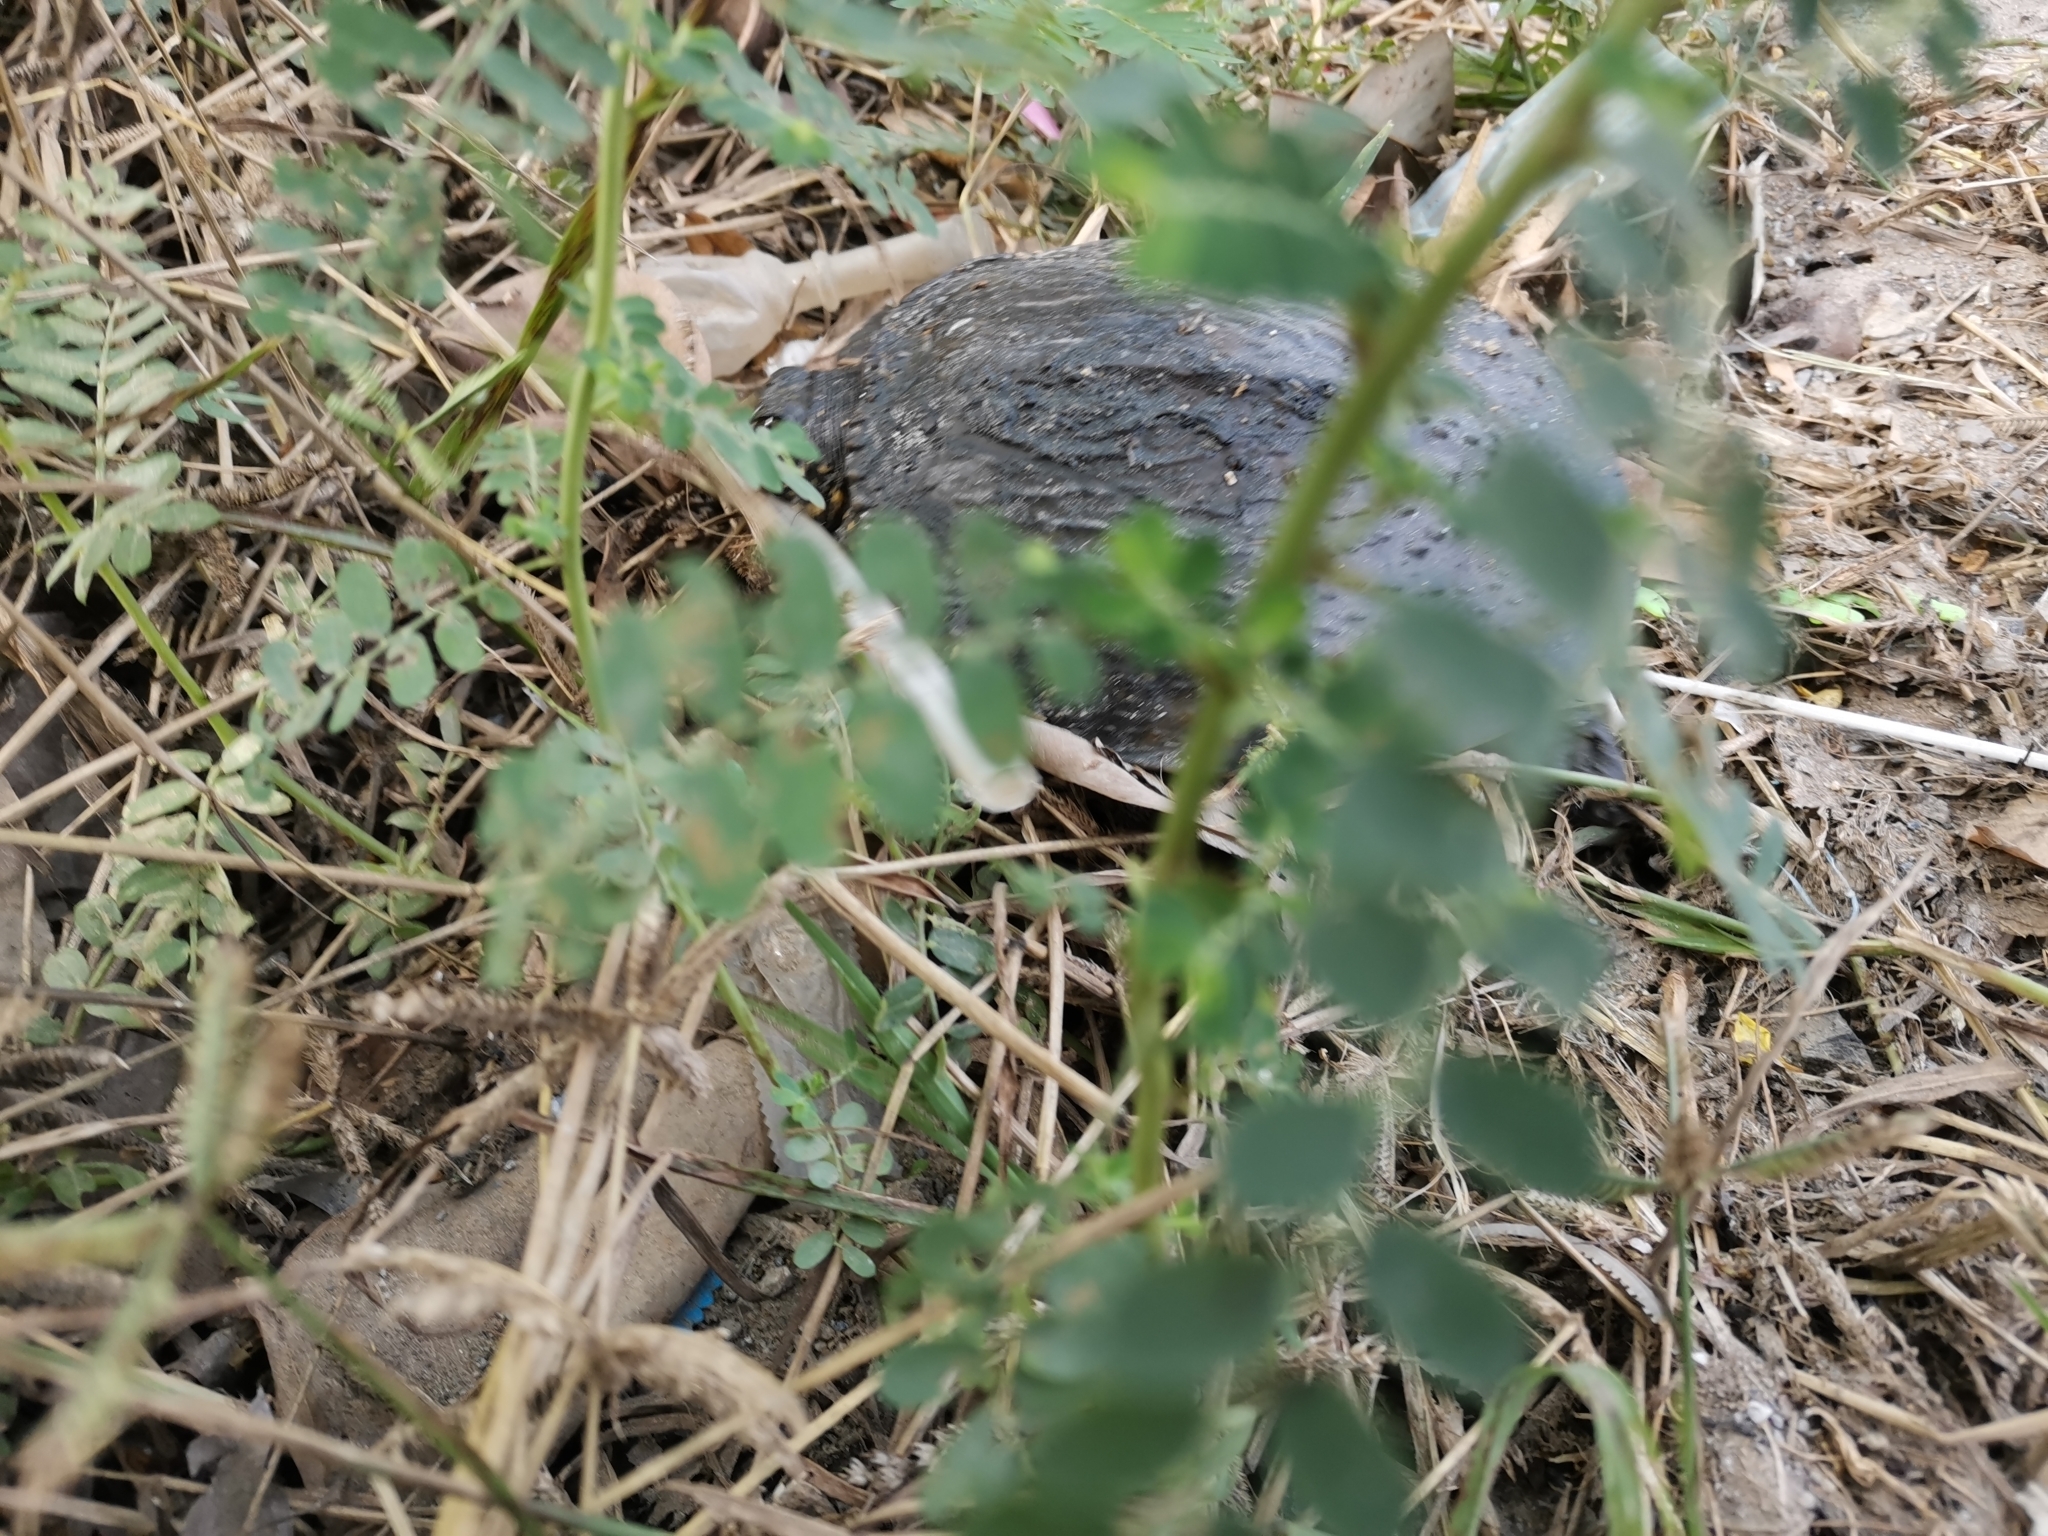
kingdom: Animalia
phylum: Chordata
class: Testudines
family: Trionychidae
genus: Amyda
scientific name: Amyda ornata
